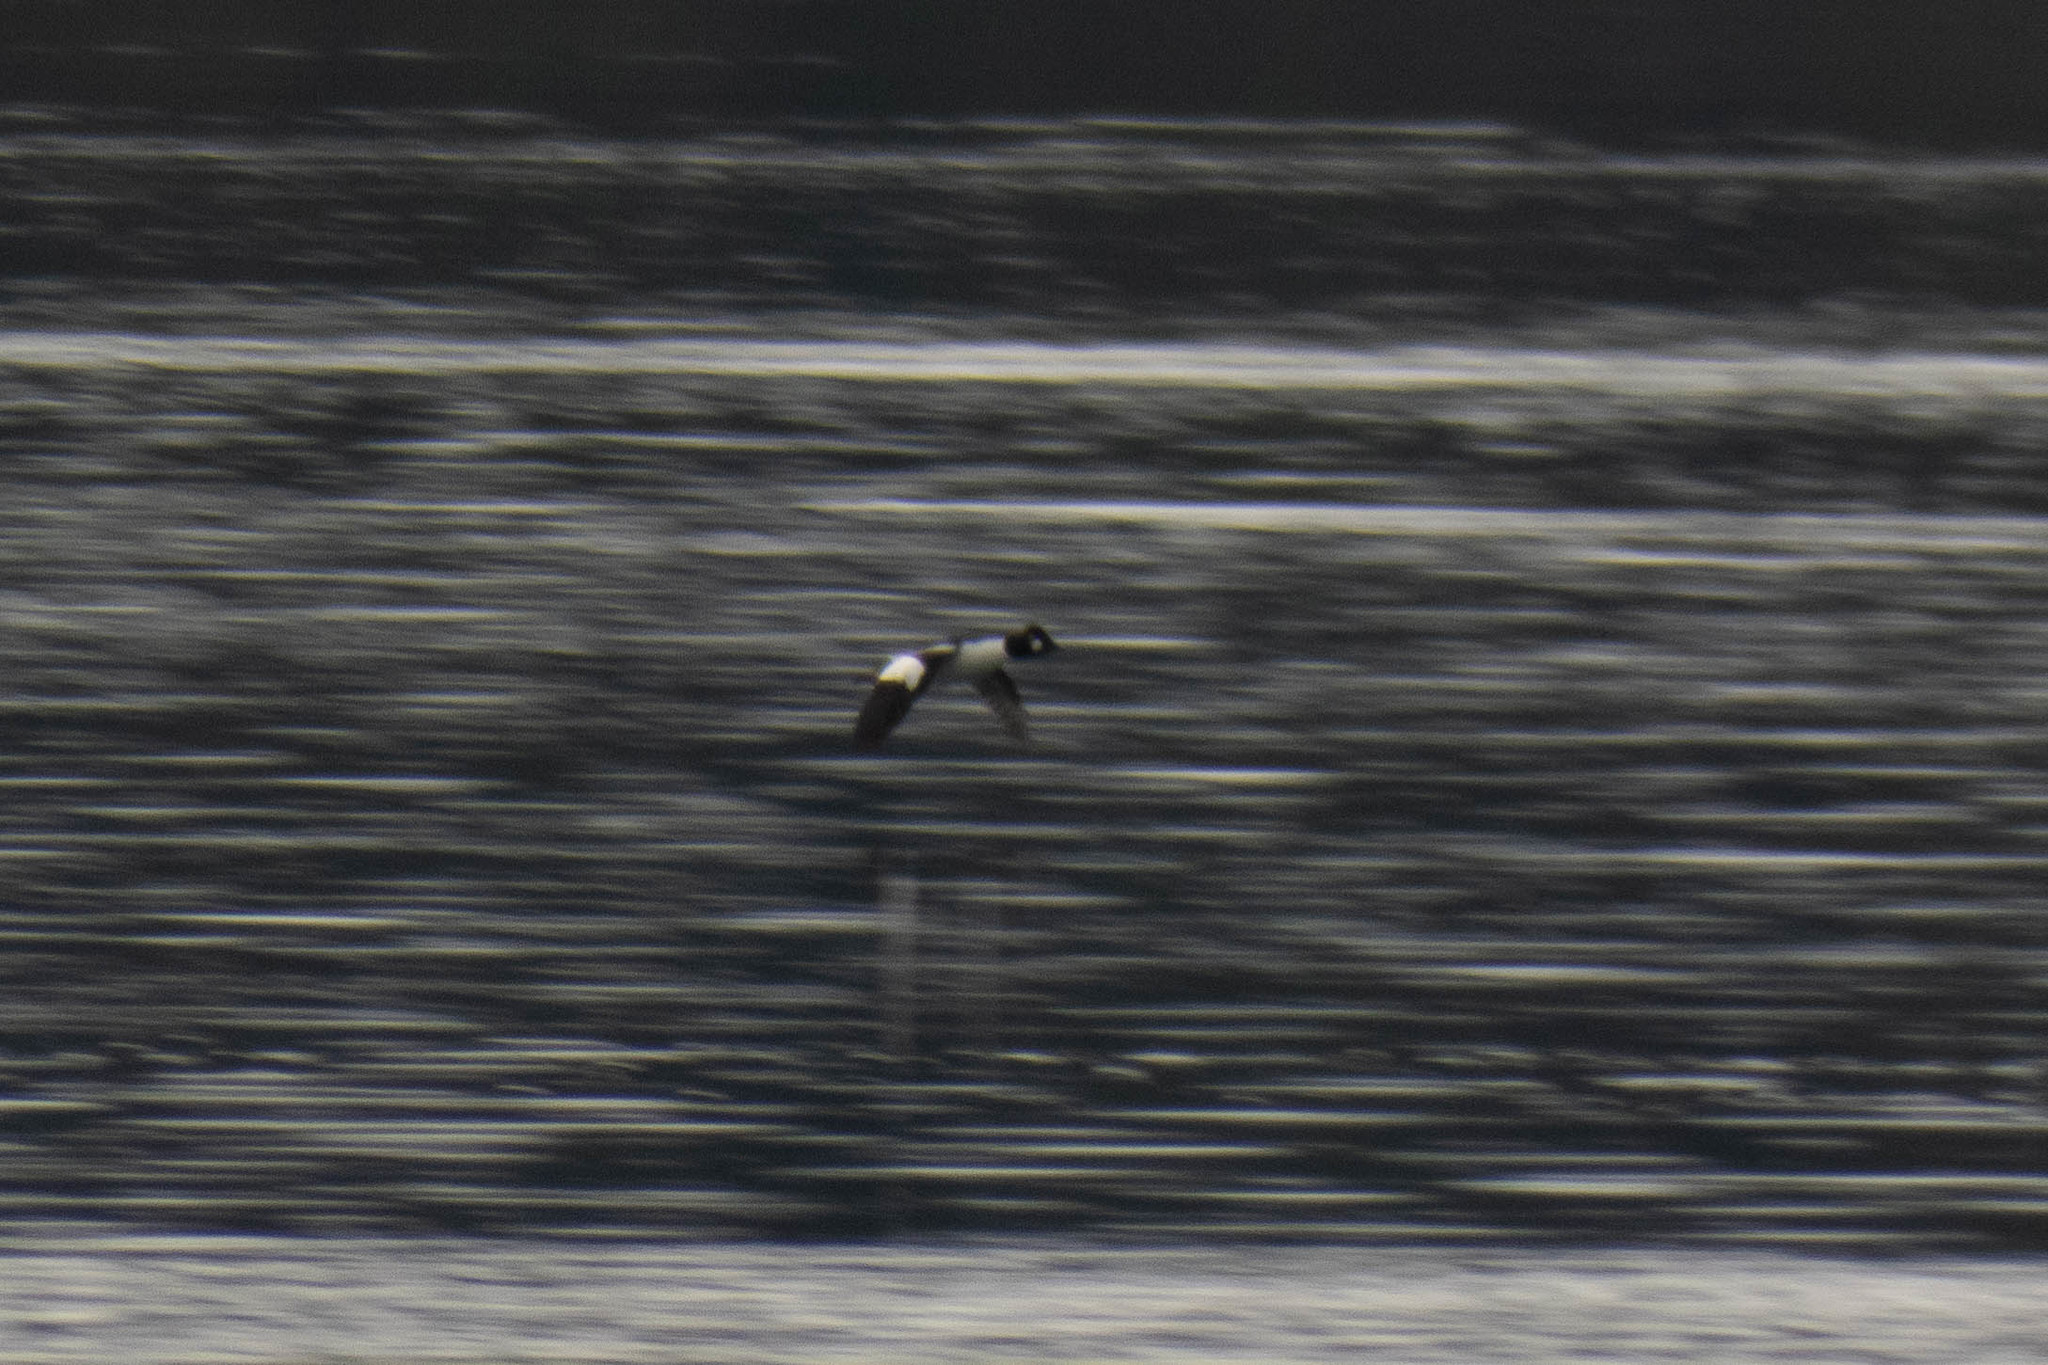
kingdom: Animalia
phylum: Chordata
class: Aves
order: Anseriformes
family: Anatidae
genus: Bucephala
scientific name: Bucephala clangula
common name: Common goldeneye
